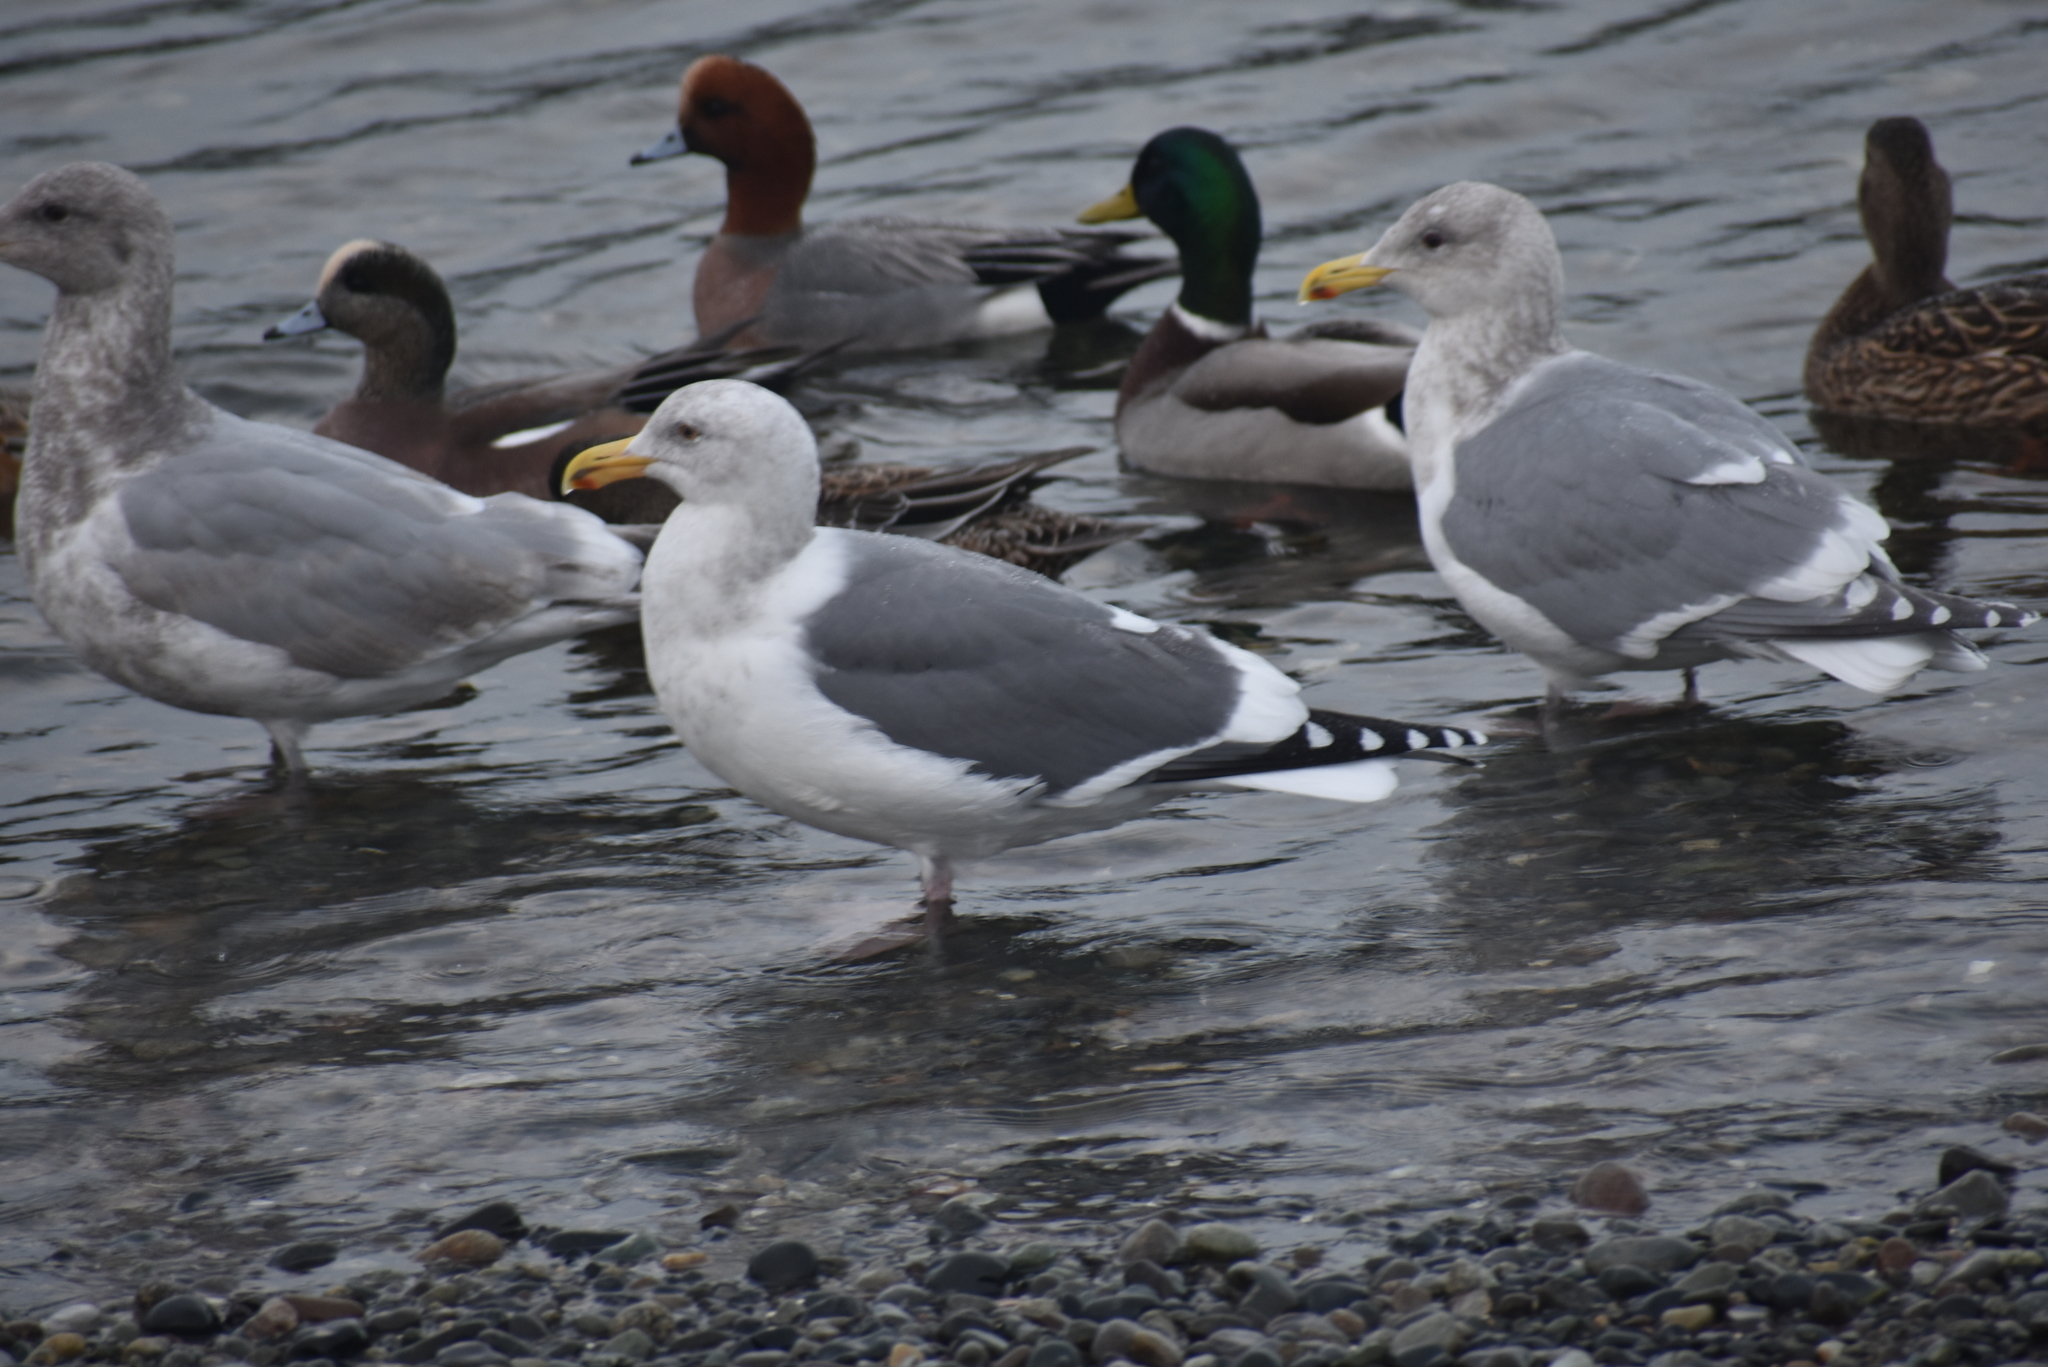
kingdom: Animalia
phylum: Chordata
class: Aves
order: Charadriiformes
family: Laridae
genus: Larus
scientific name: Larus
